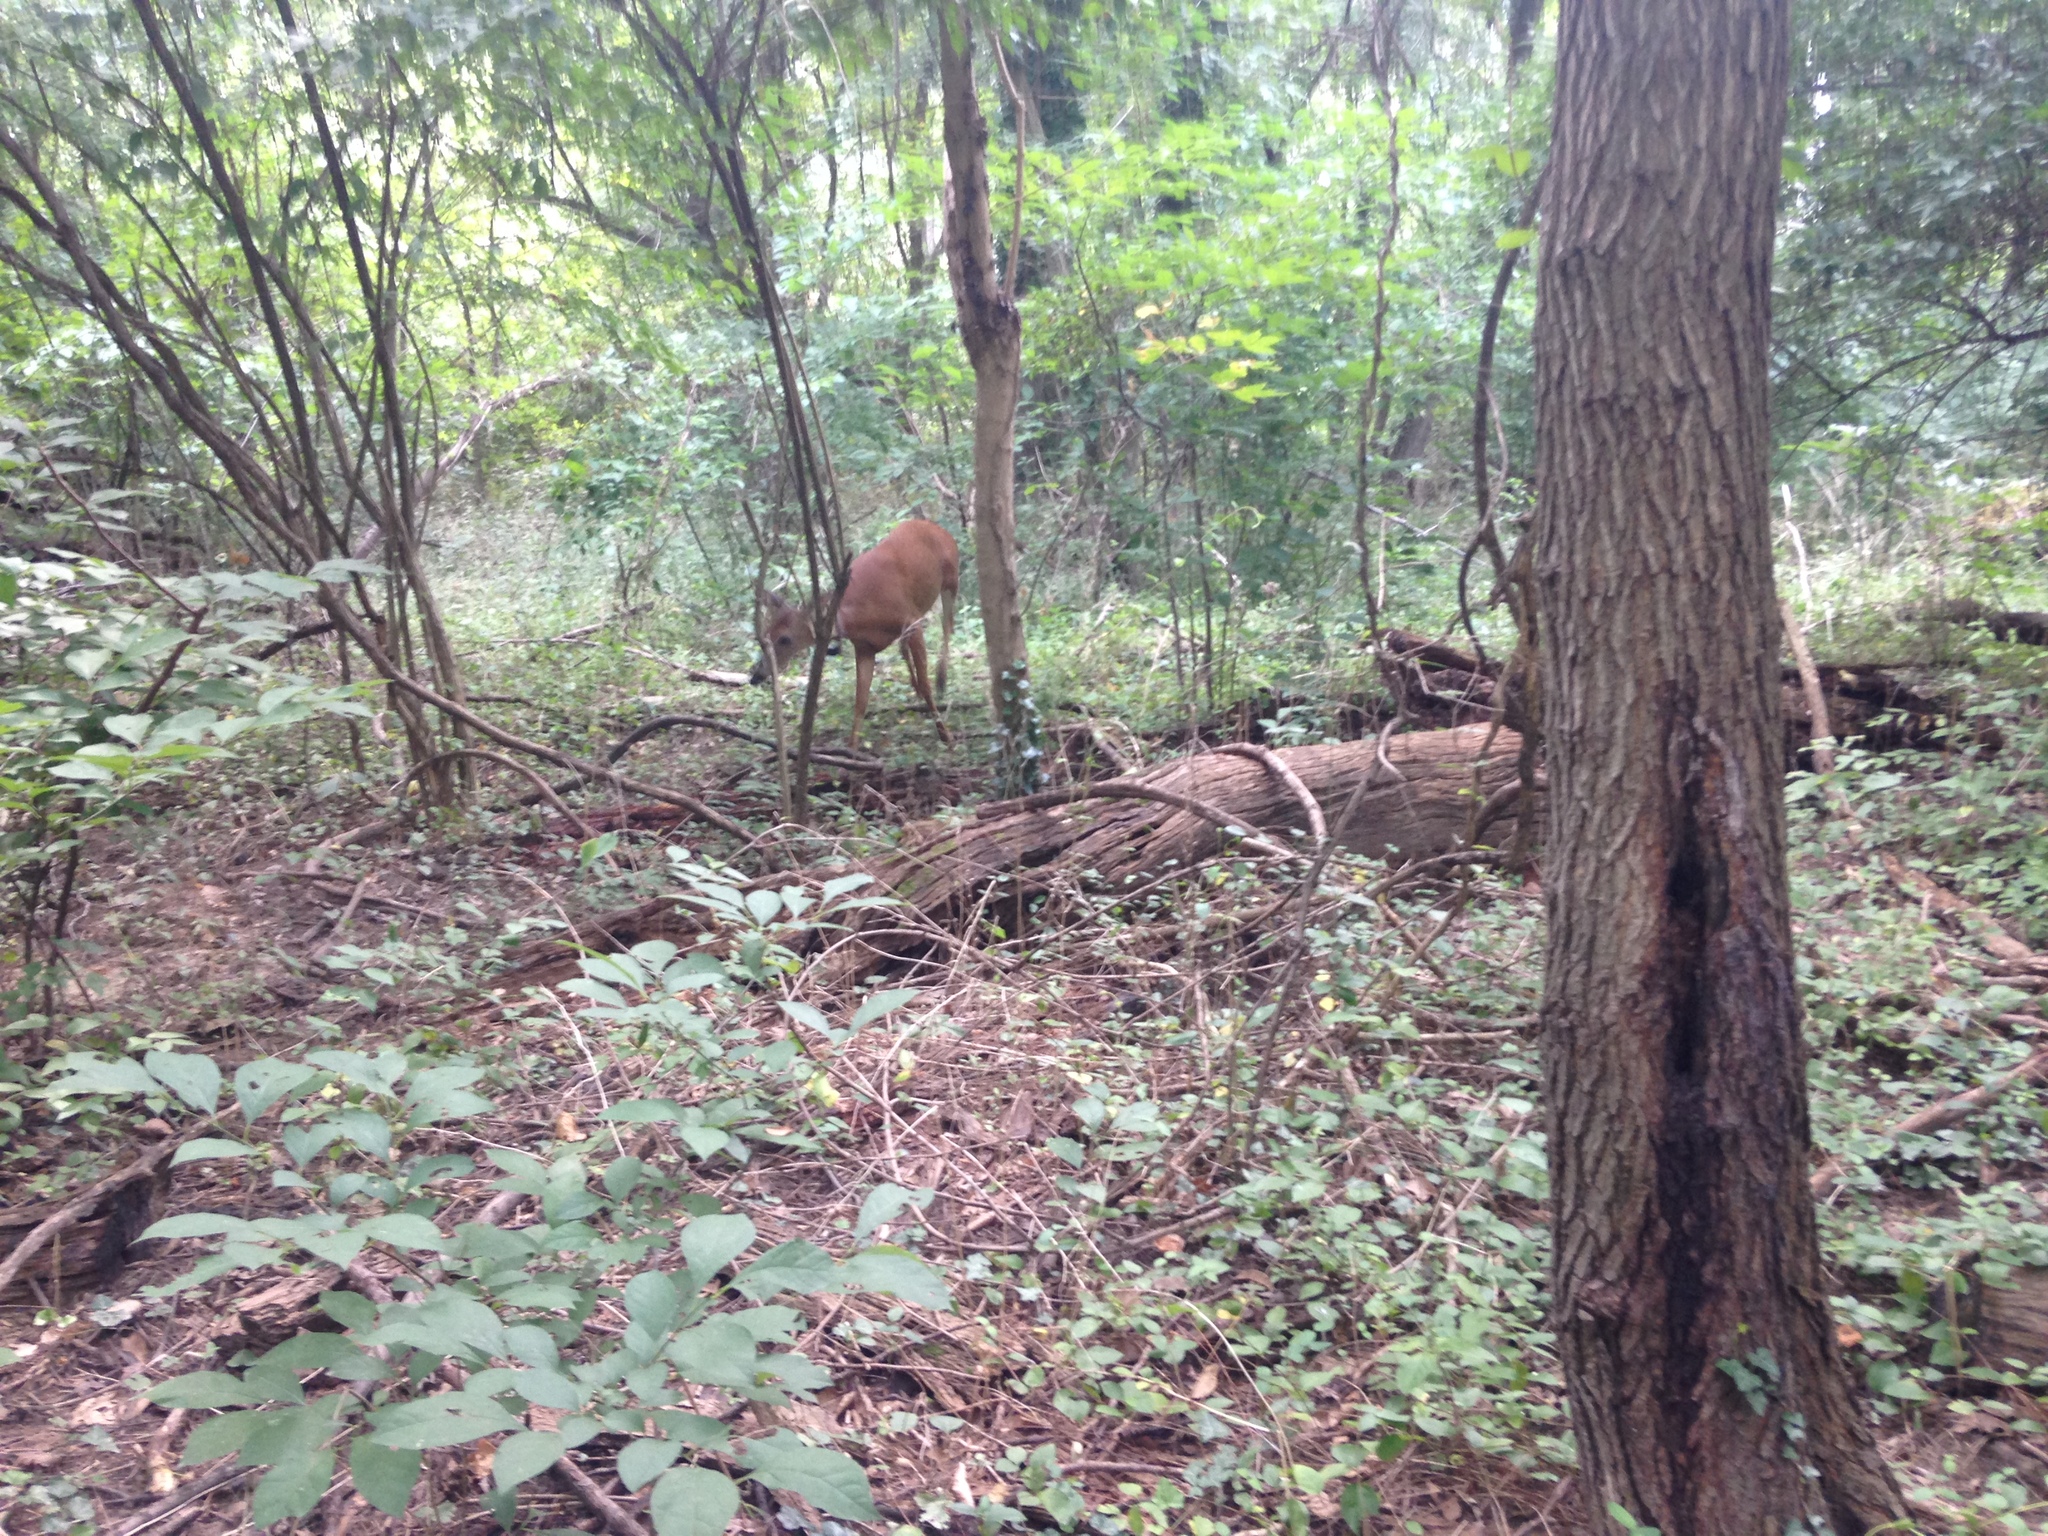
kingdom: Animalia
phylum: Chordata
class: Mammalia
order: Artiodactyla
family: Cervidae
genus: Odocoileus
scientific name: Odocoileus virginianus
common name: White-tailed deer
